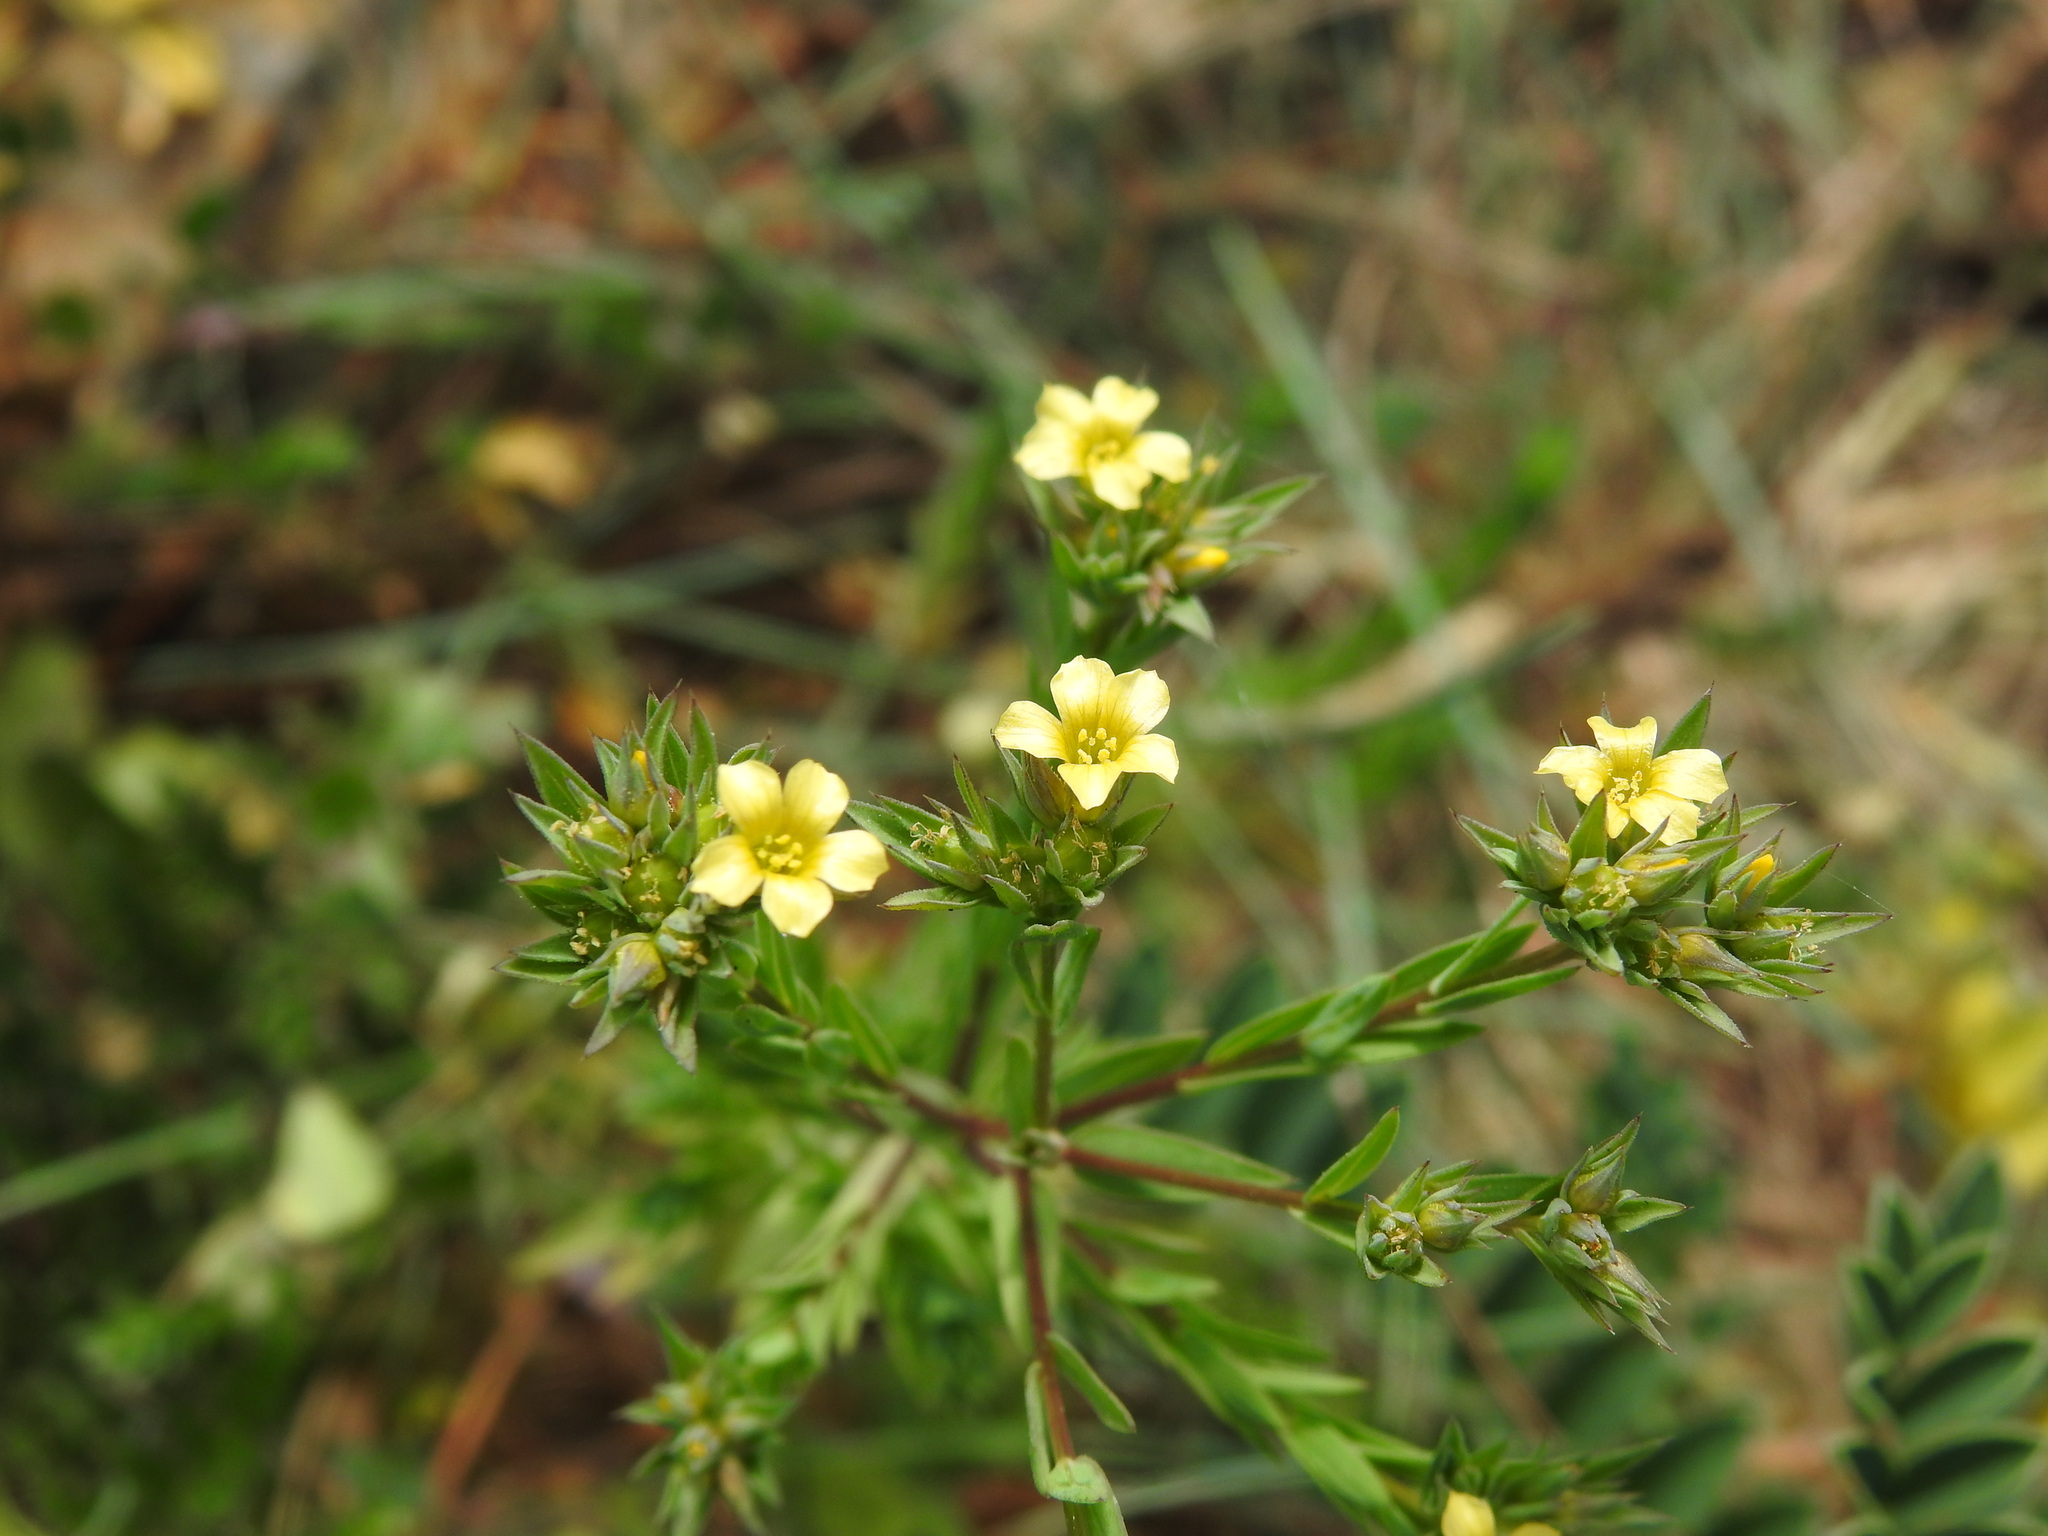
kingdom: Plantae
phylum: Tracheophyta
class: Magnoliopsida
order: Malpighiales
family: Linaceae
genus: Linum
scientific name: Linum strictum
